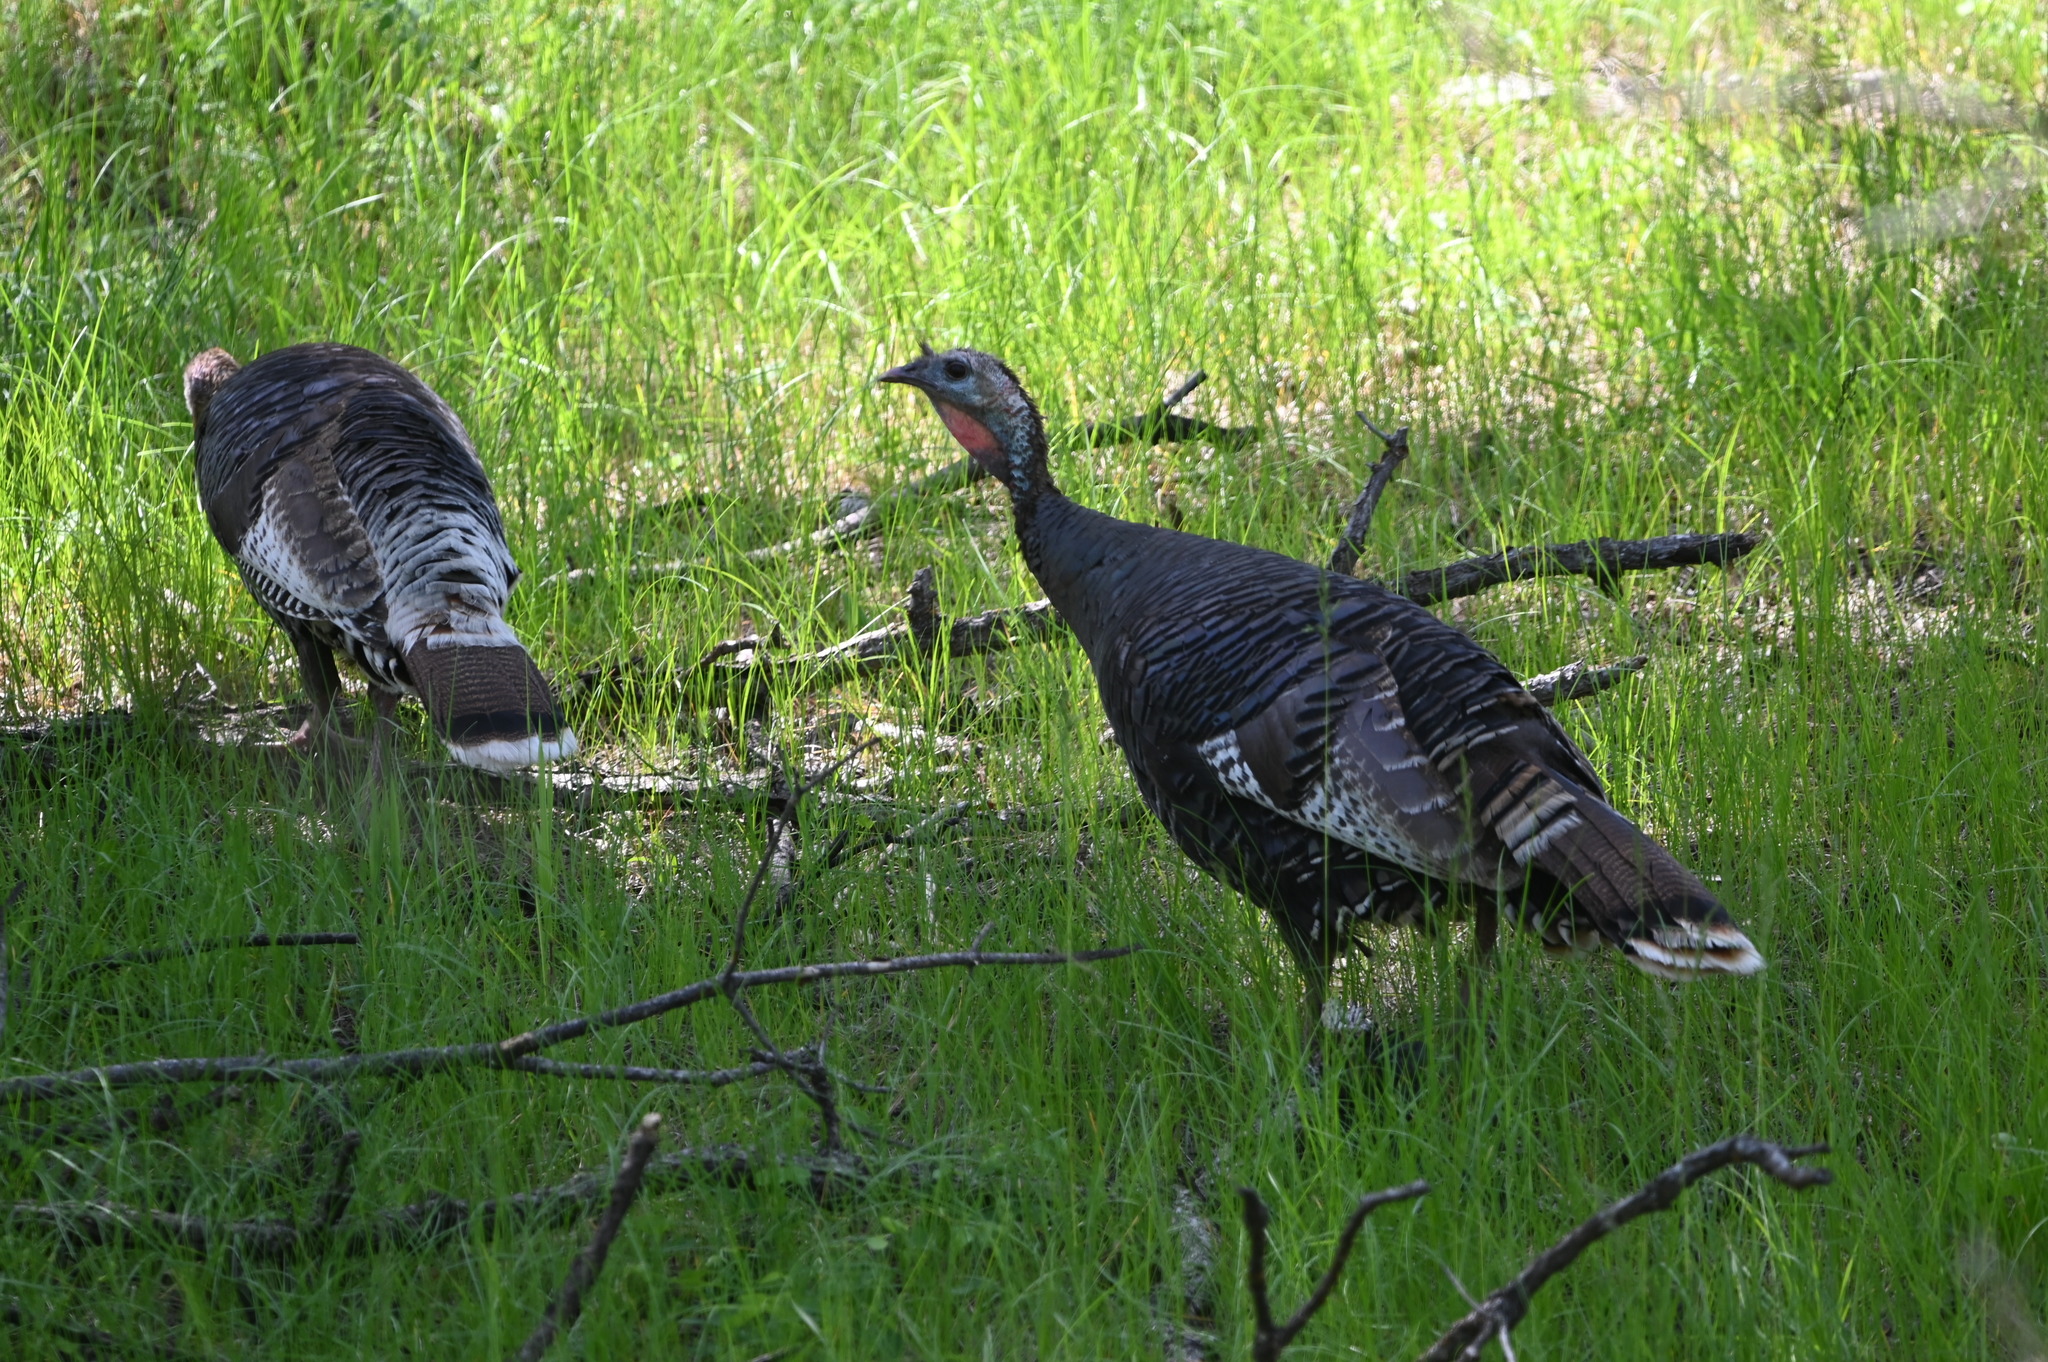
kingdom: Animalia
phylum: Chordata
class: Aves
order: Galliformes
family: Phasianidae
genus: Meleagris
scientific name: Meleagris gallopavo
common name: Wild turkey
